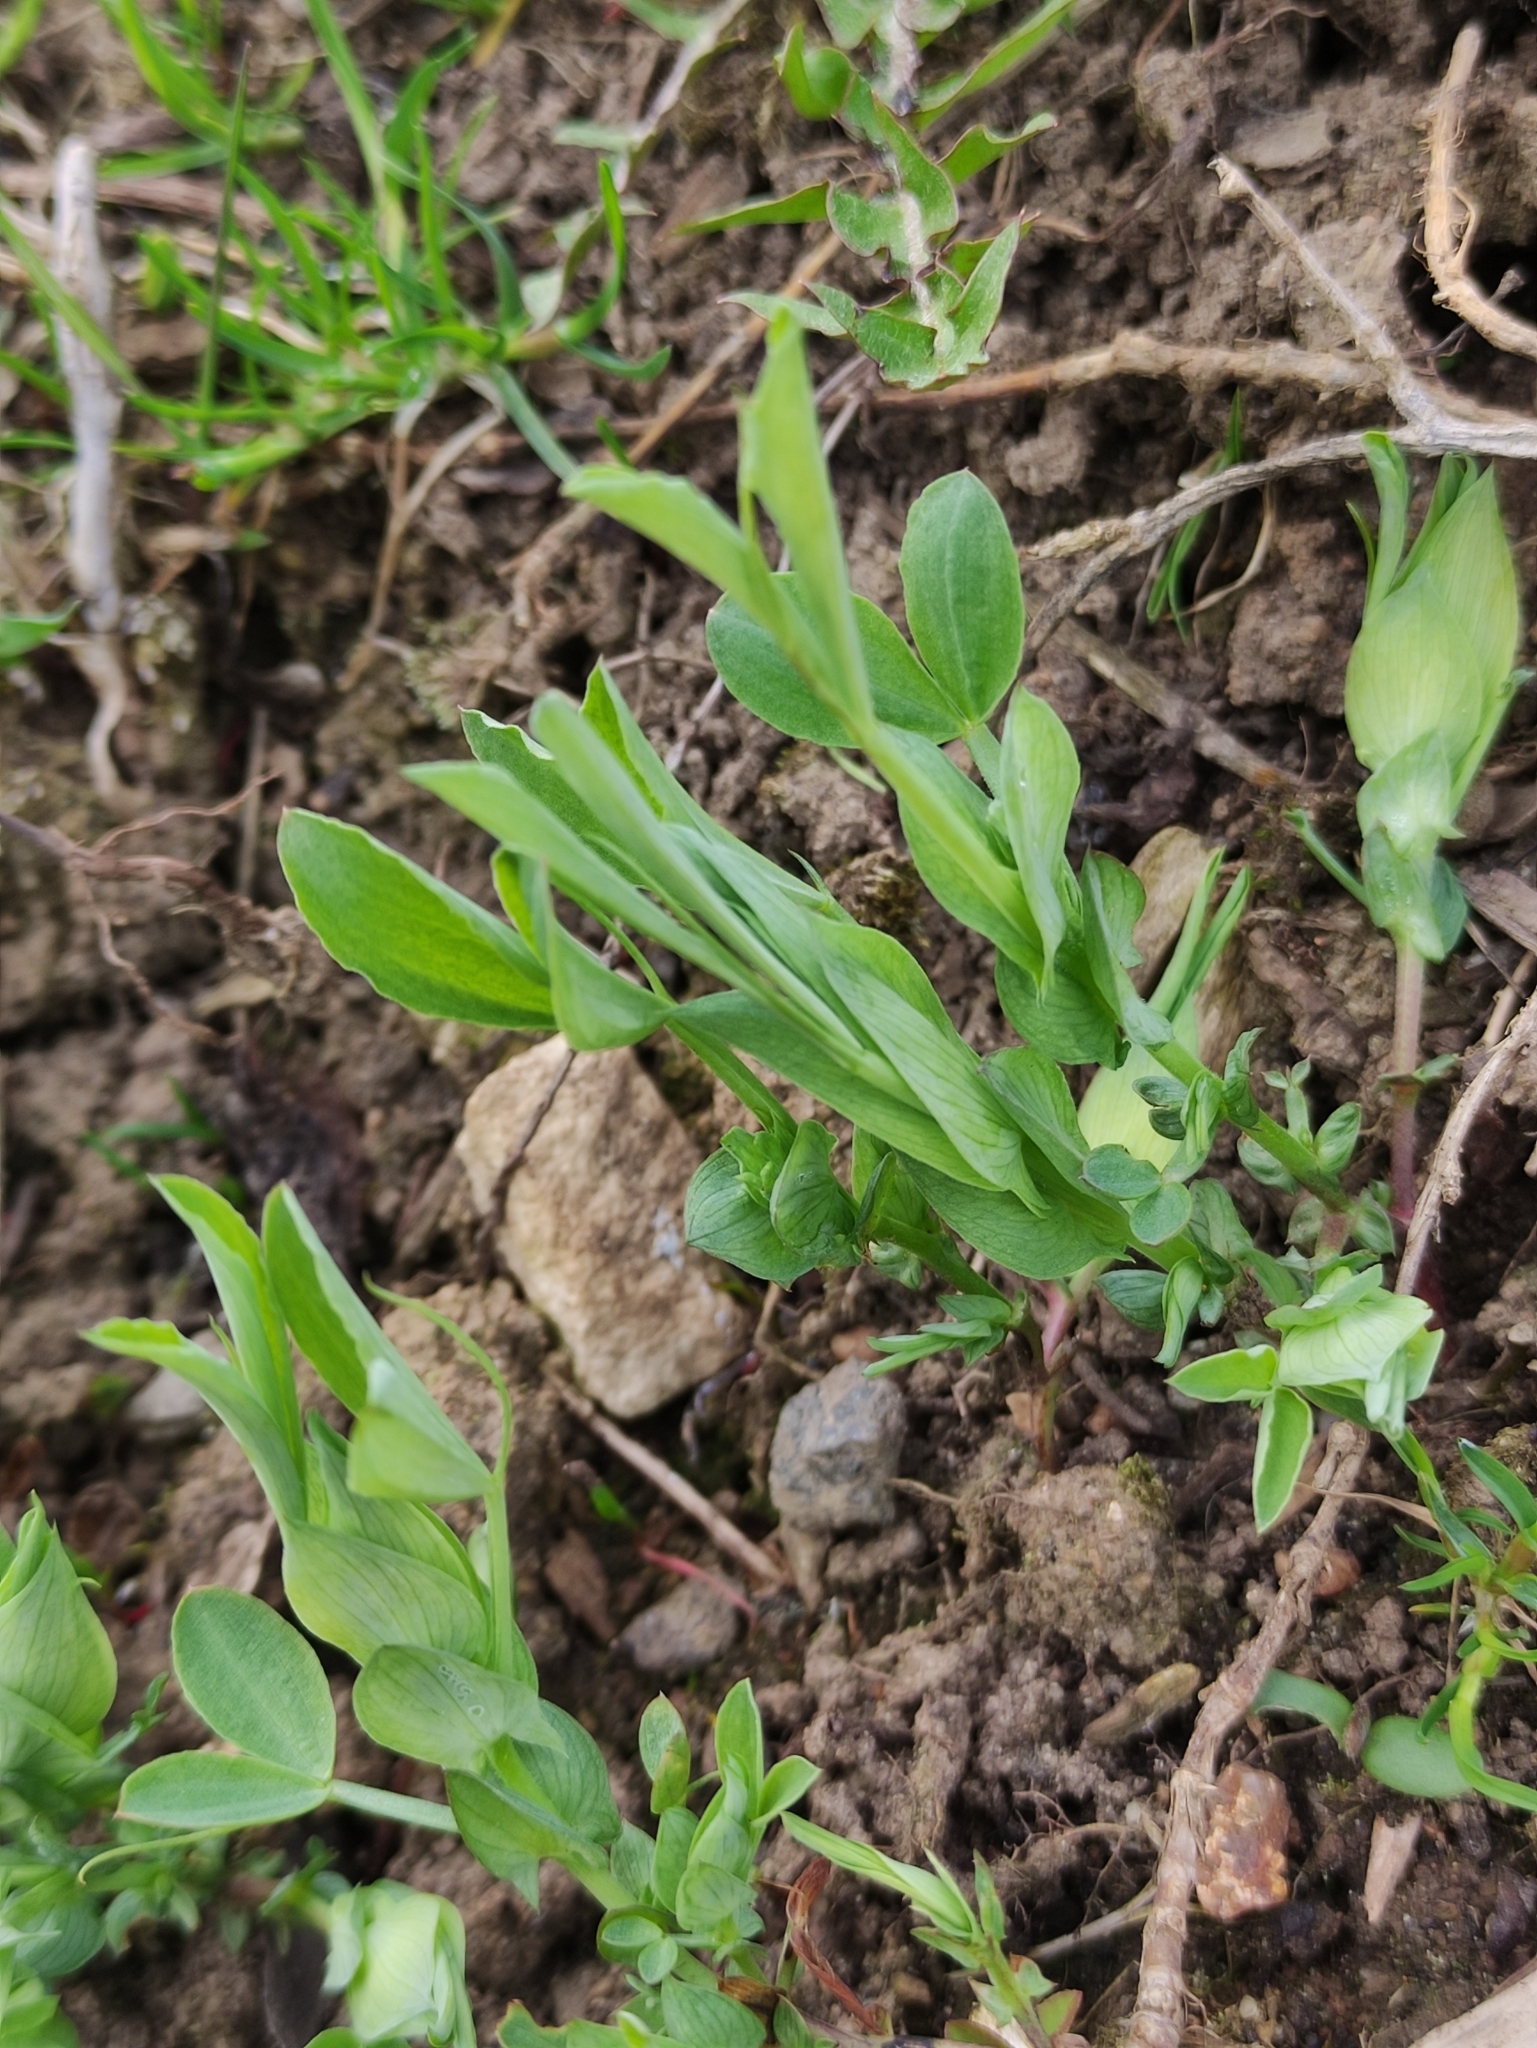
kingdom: Plantae
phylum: Tracheophyta
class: Magnoliopsida
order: Fabales
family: Fabaceae
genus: Lathyrus
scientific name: Lathyrus pratensis
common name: Meadow vetchling
